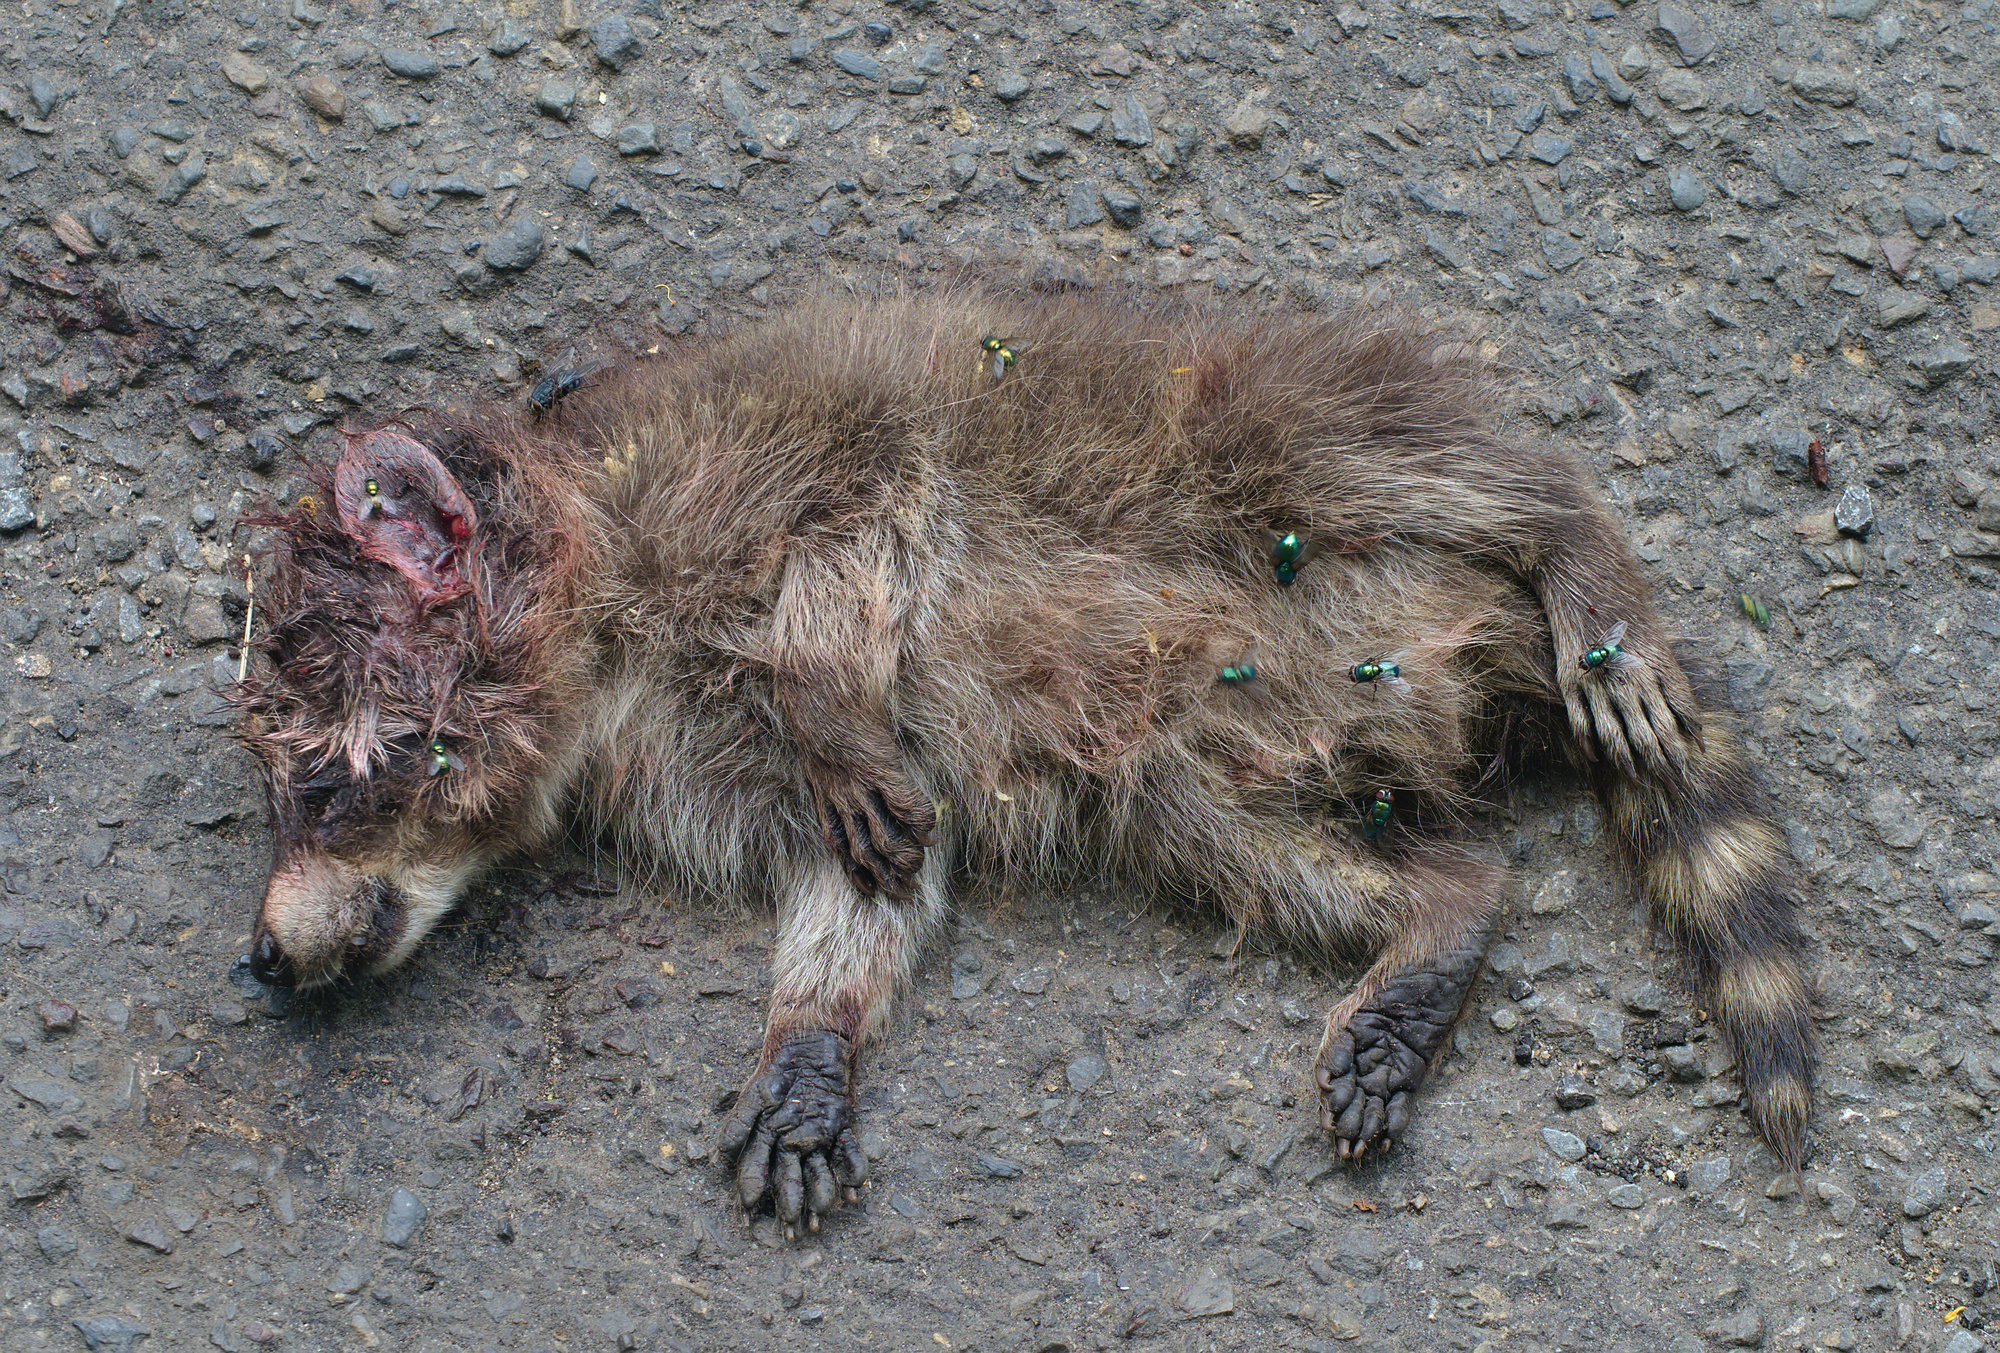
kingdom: Animalia
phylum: Chordata
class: Mammalia
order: Carnivora
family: Procyonidae
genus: Procyon
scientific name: Procyon lotor
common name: Raccoon
